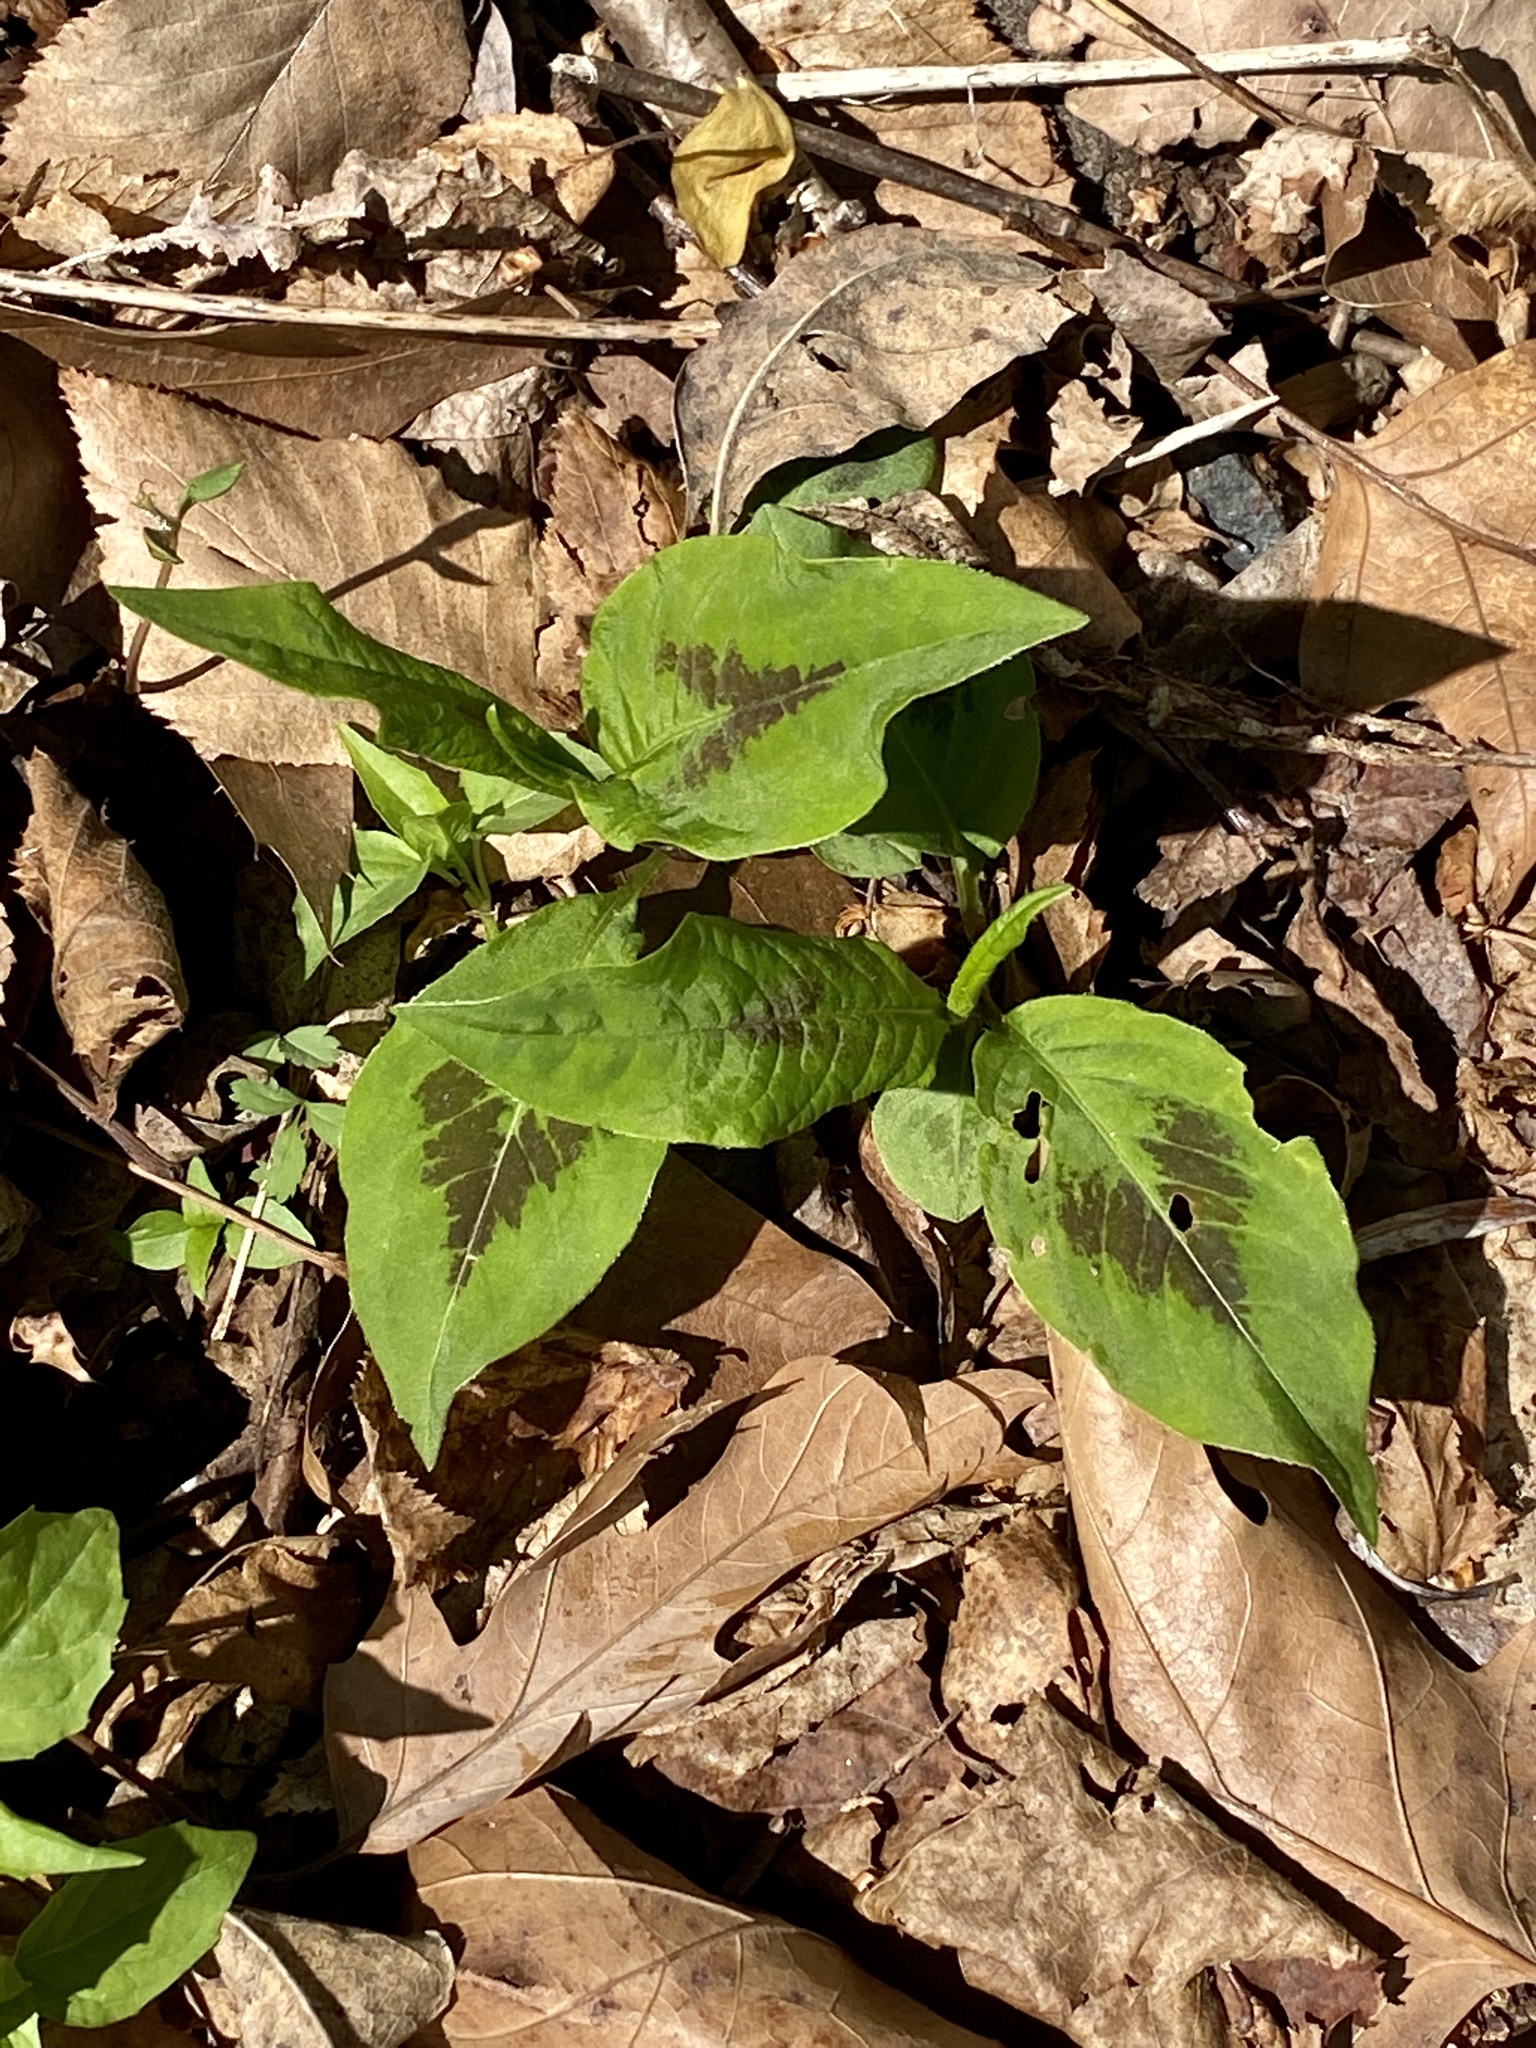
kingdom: Plantae
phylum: Tracheophyta
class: Magnoliopsida
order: Caryophyllales
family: Polygonaceae
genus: Persicaria
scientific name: Persicaria virginiana
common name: Jumpseed
